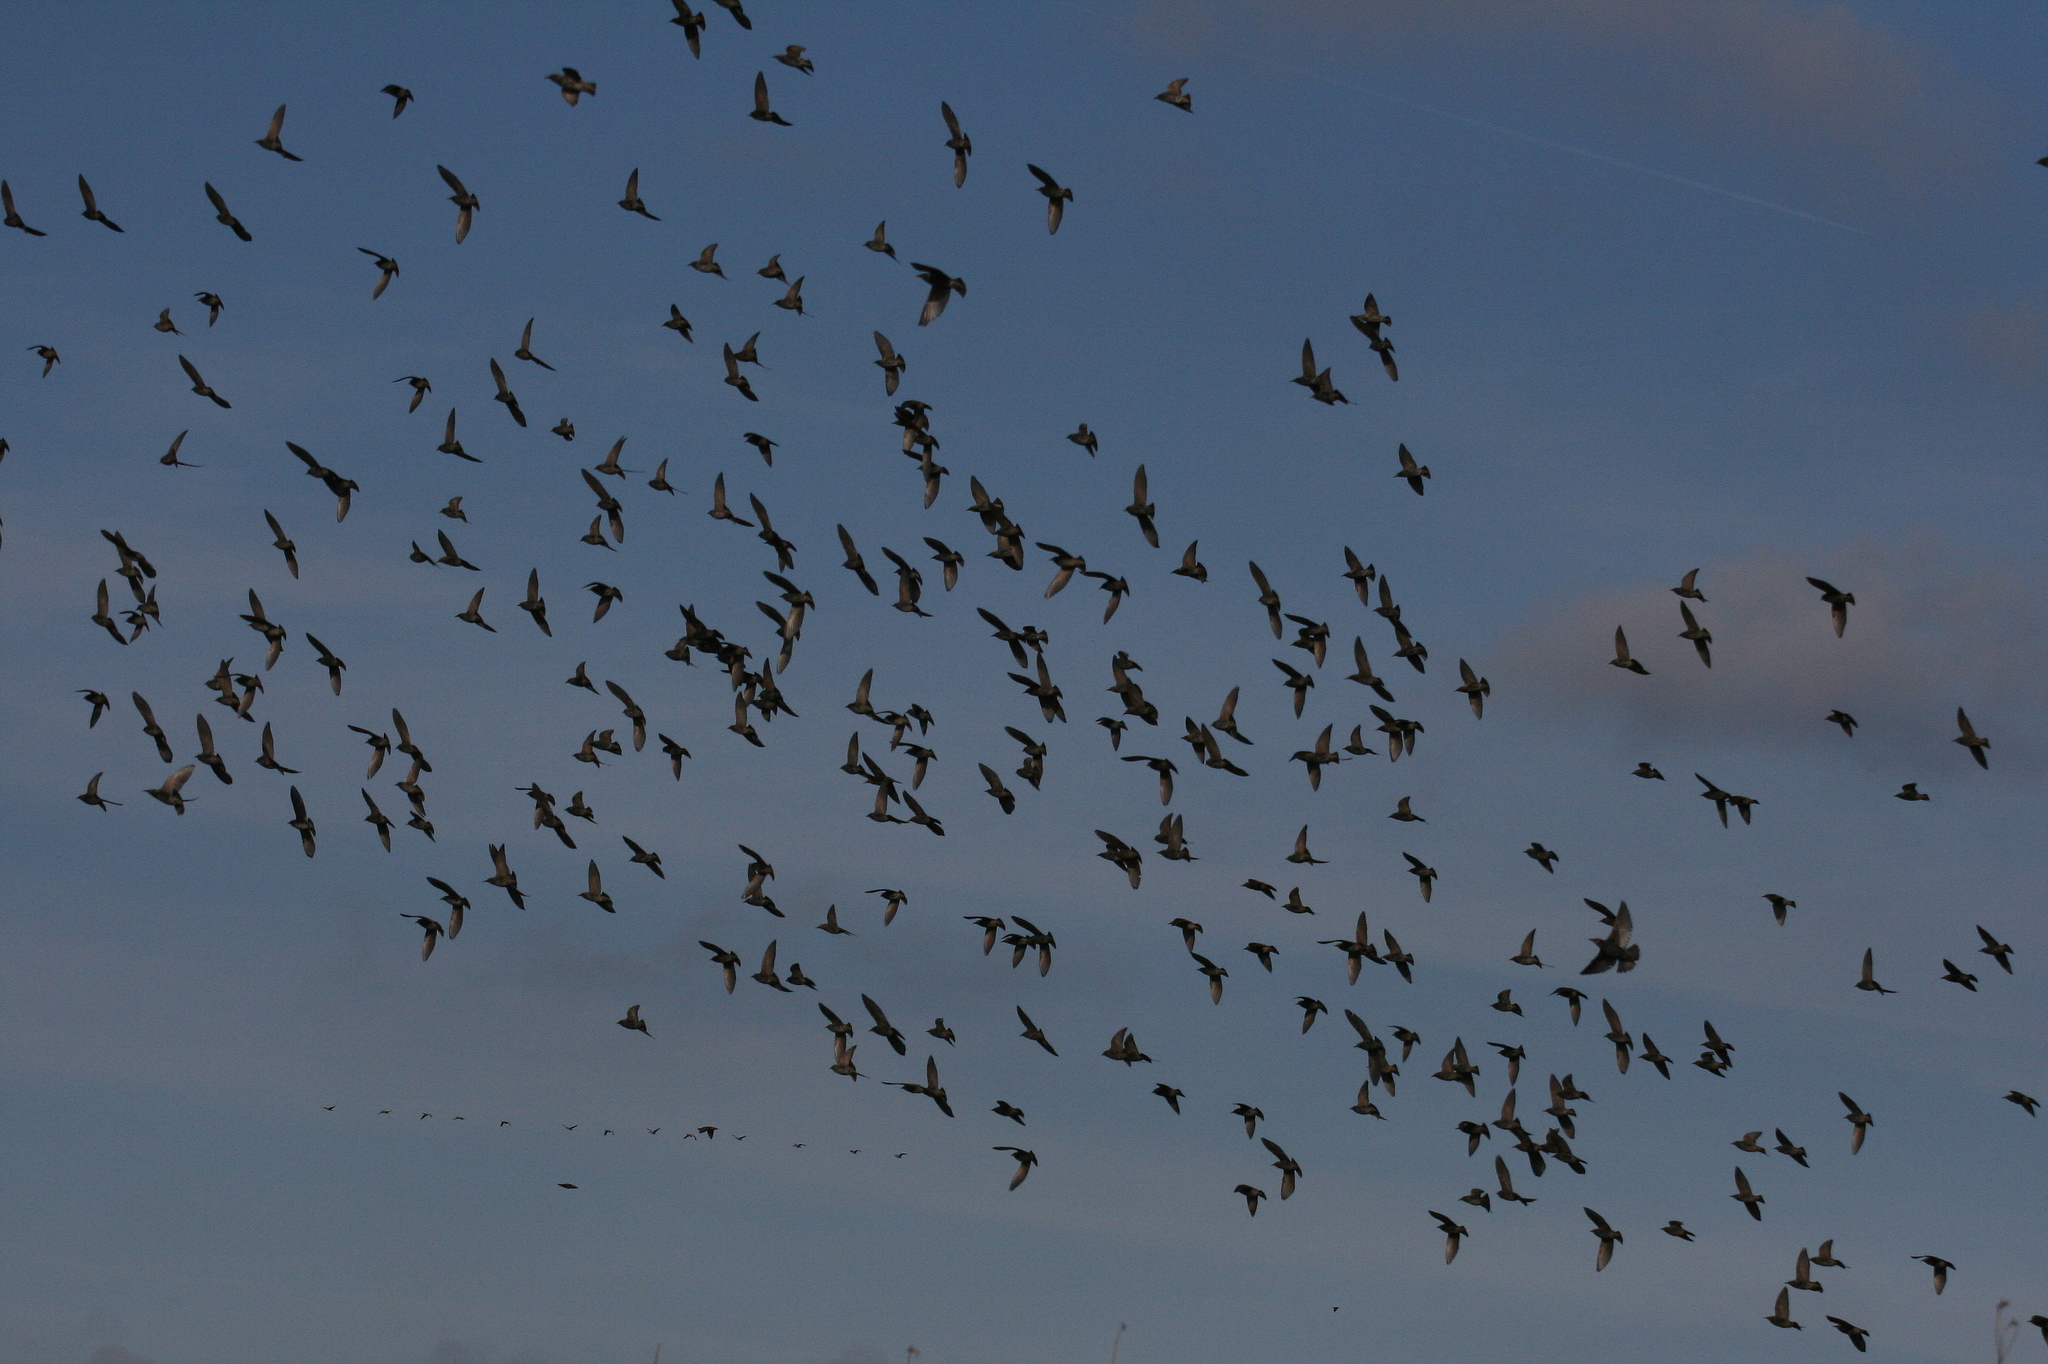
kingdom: Animalia
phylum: Chordata
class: Aves
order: Passeriformes
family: Sturnidae
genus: Sturnus
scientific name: Sturnus vulgaris
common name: Common starling
